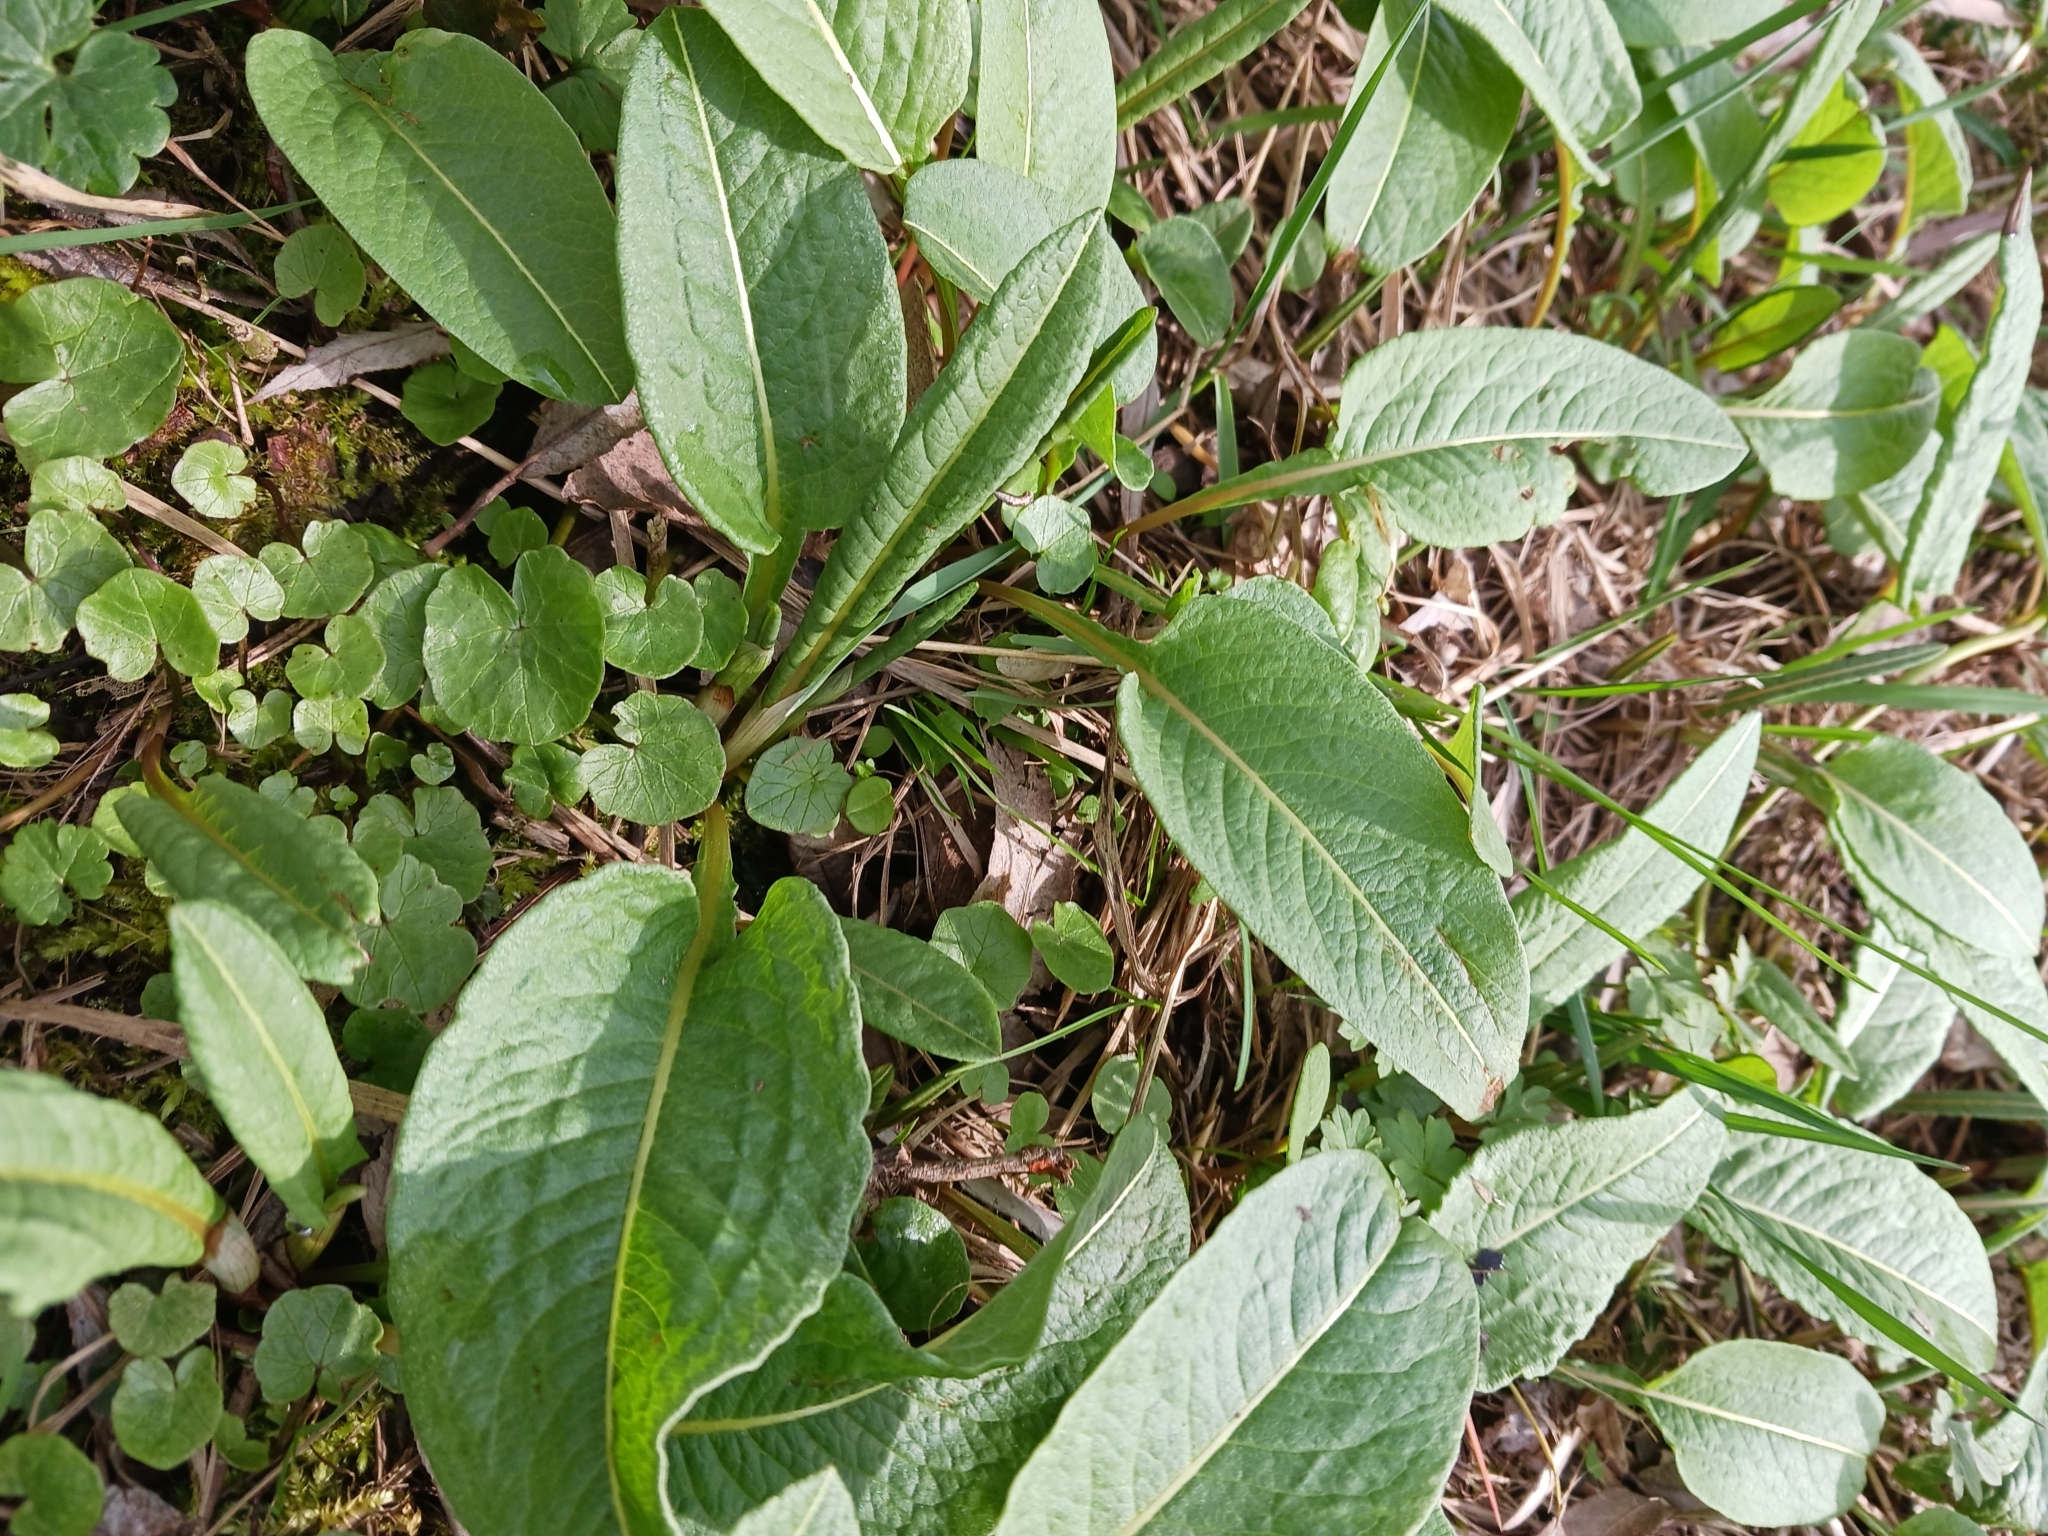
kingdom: Plantae
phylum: Tracheophyta
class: Magnoliopsida
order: Caryophyllales
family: Polygonaceae
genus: Bistorta
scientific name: Bistorta officinalis
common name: Common bistort
